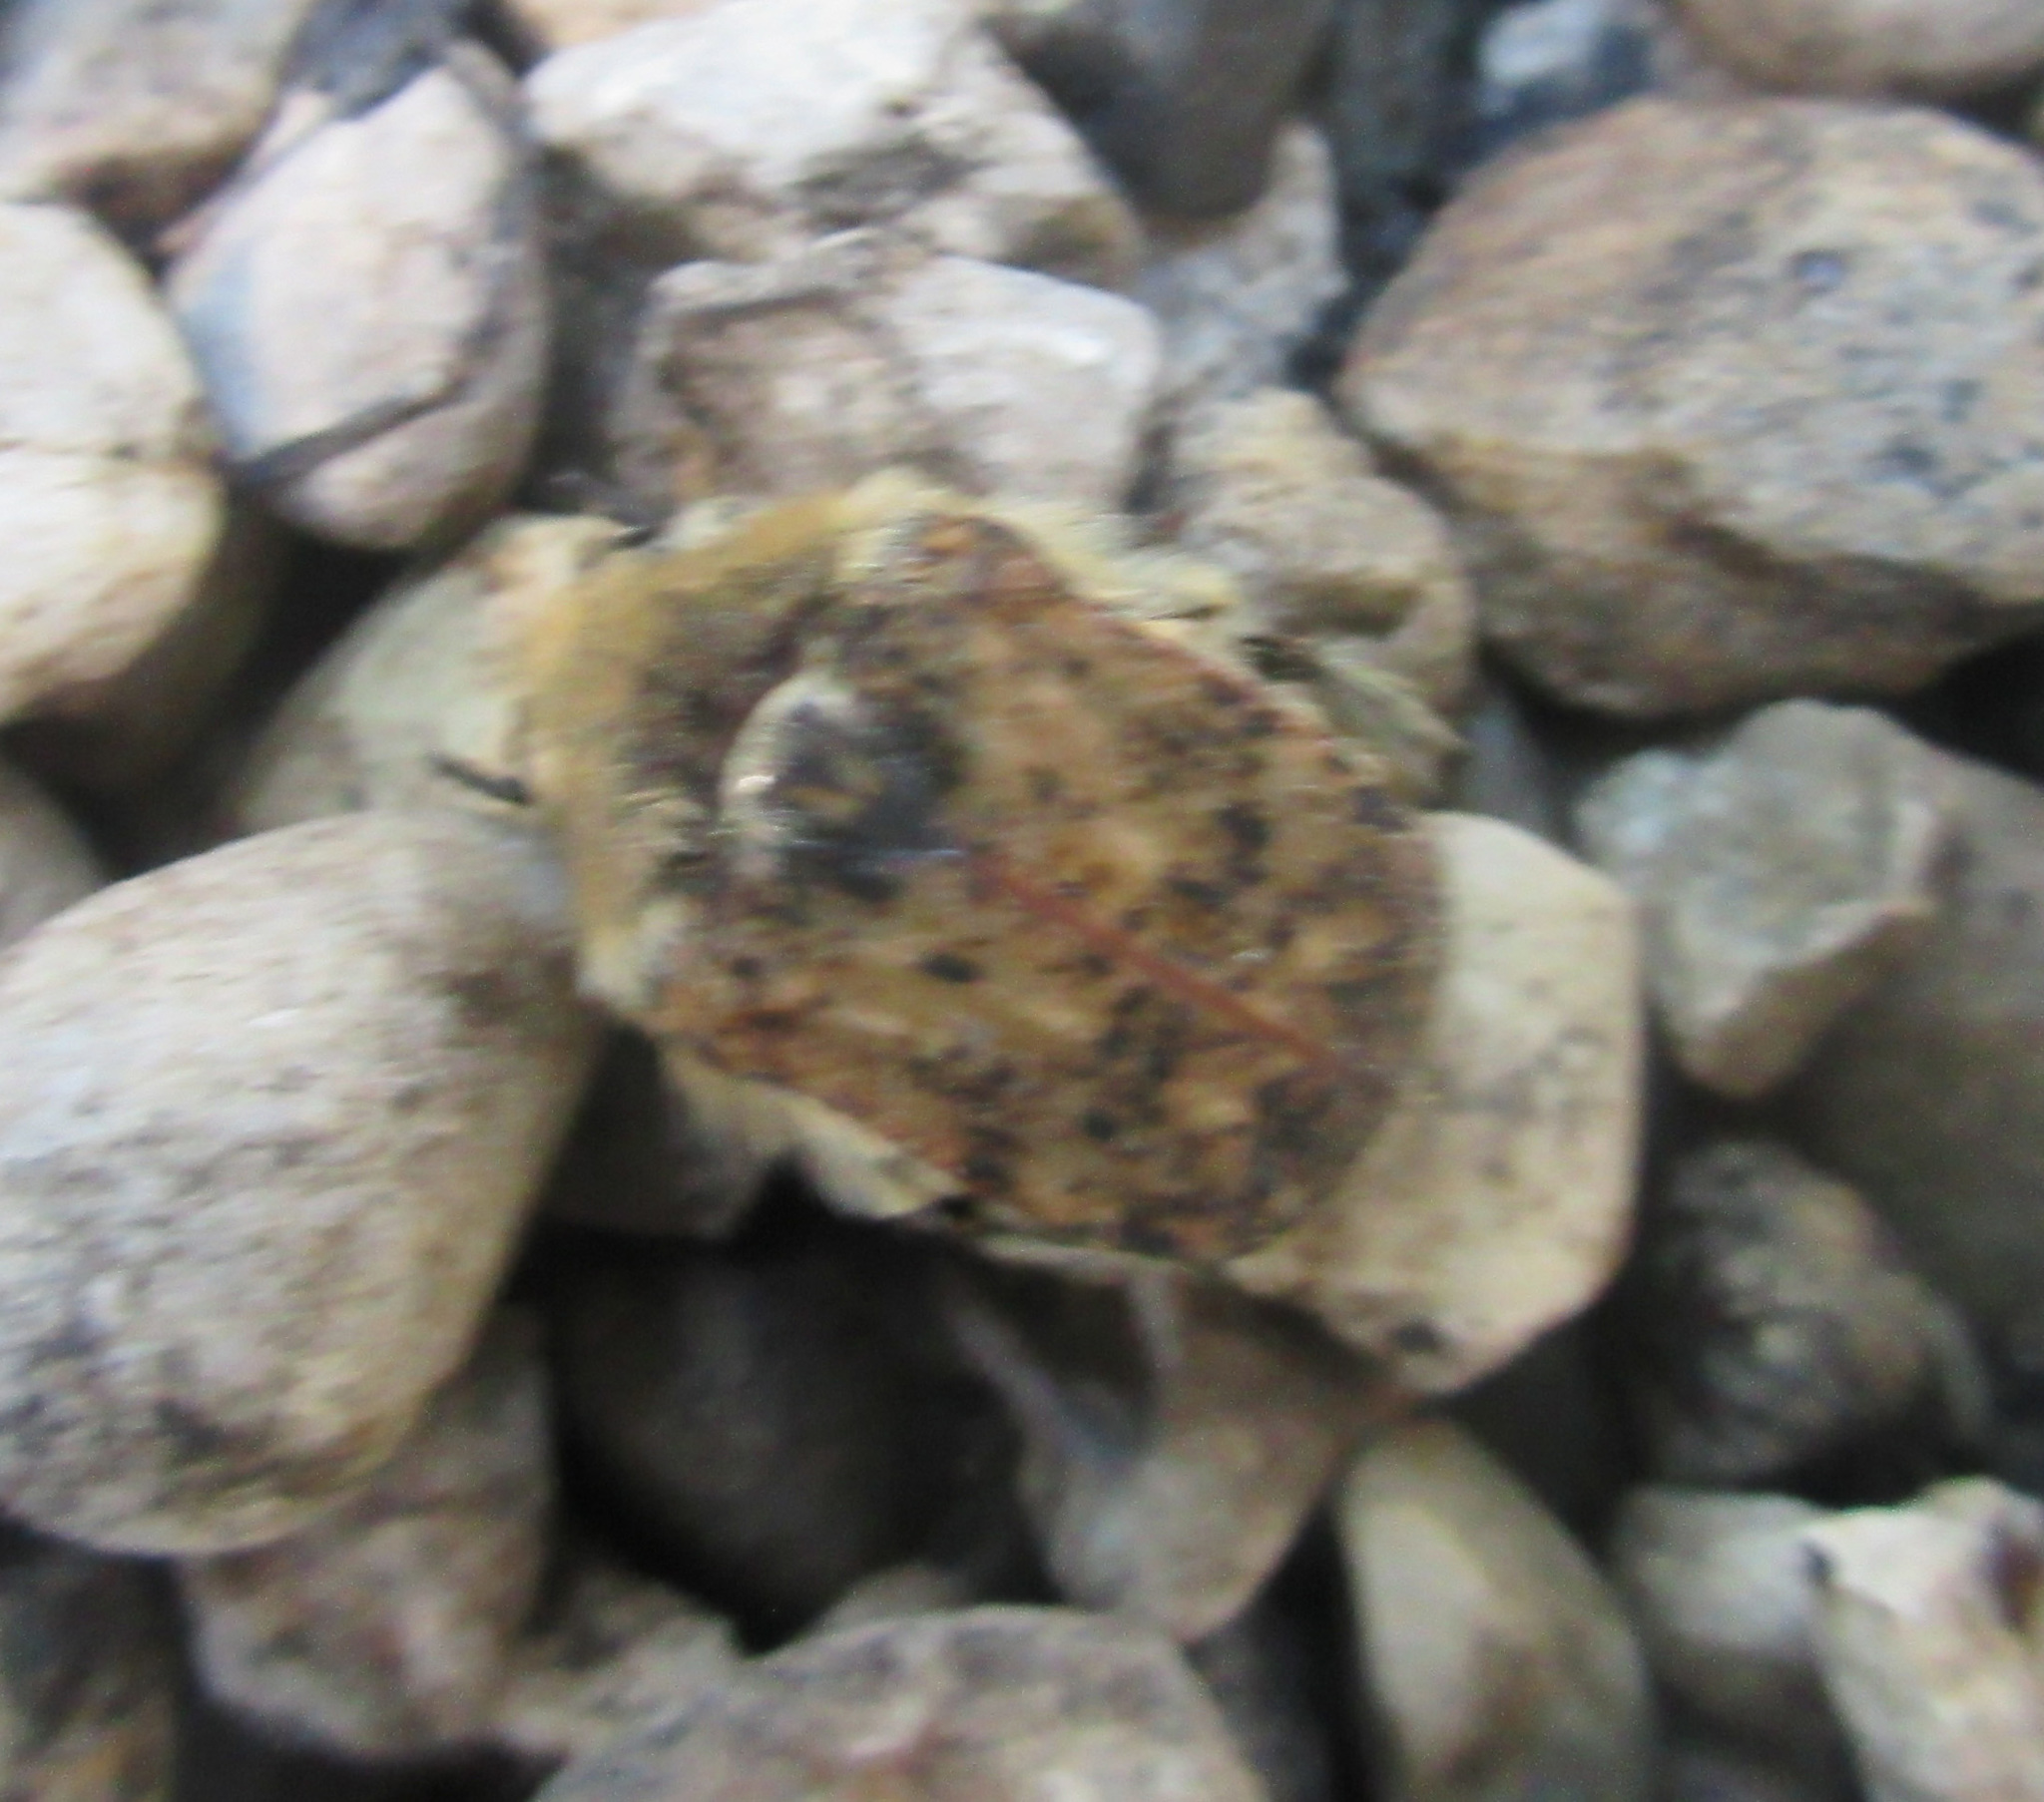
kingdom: Animalia
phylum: Arthropoda
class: Insecta
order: Coleoptera
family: Scarabaeidae
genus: Euphoria
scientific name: Euphoria inda
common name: Bumble flower beetle
